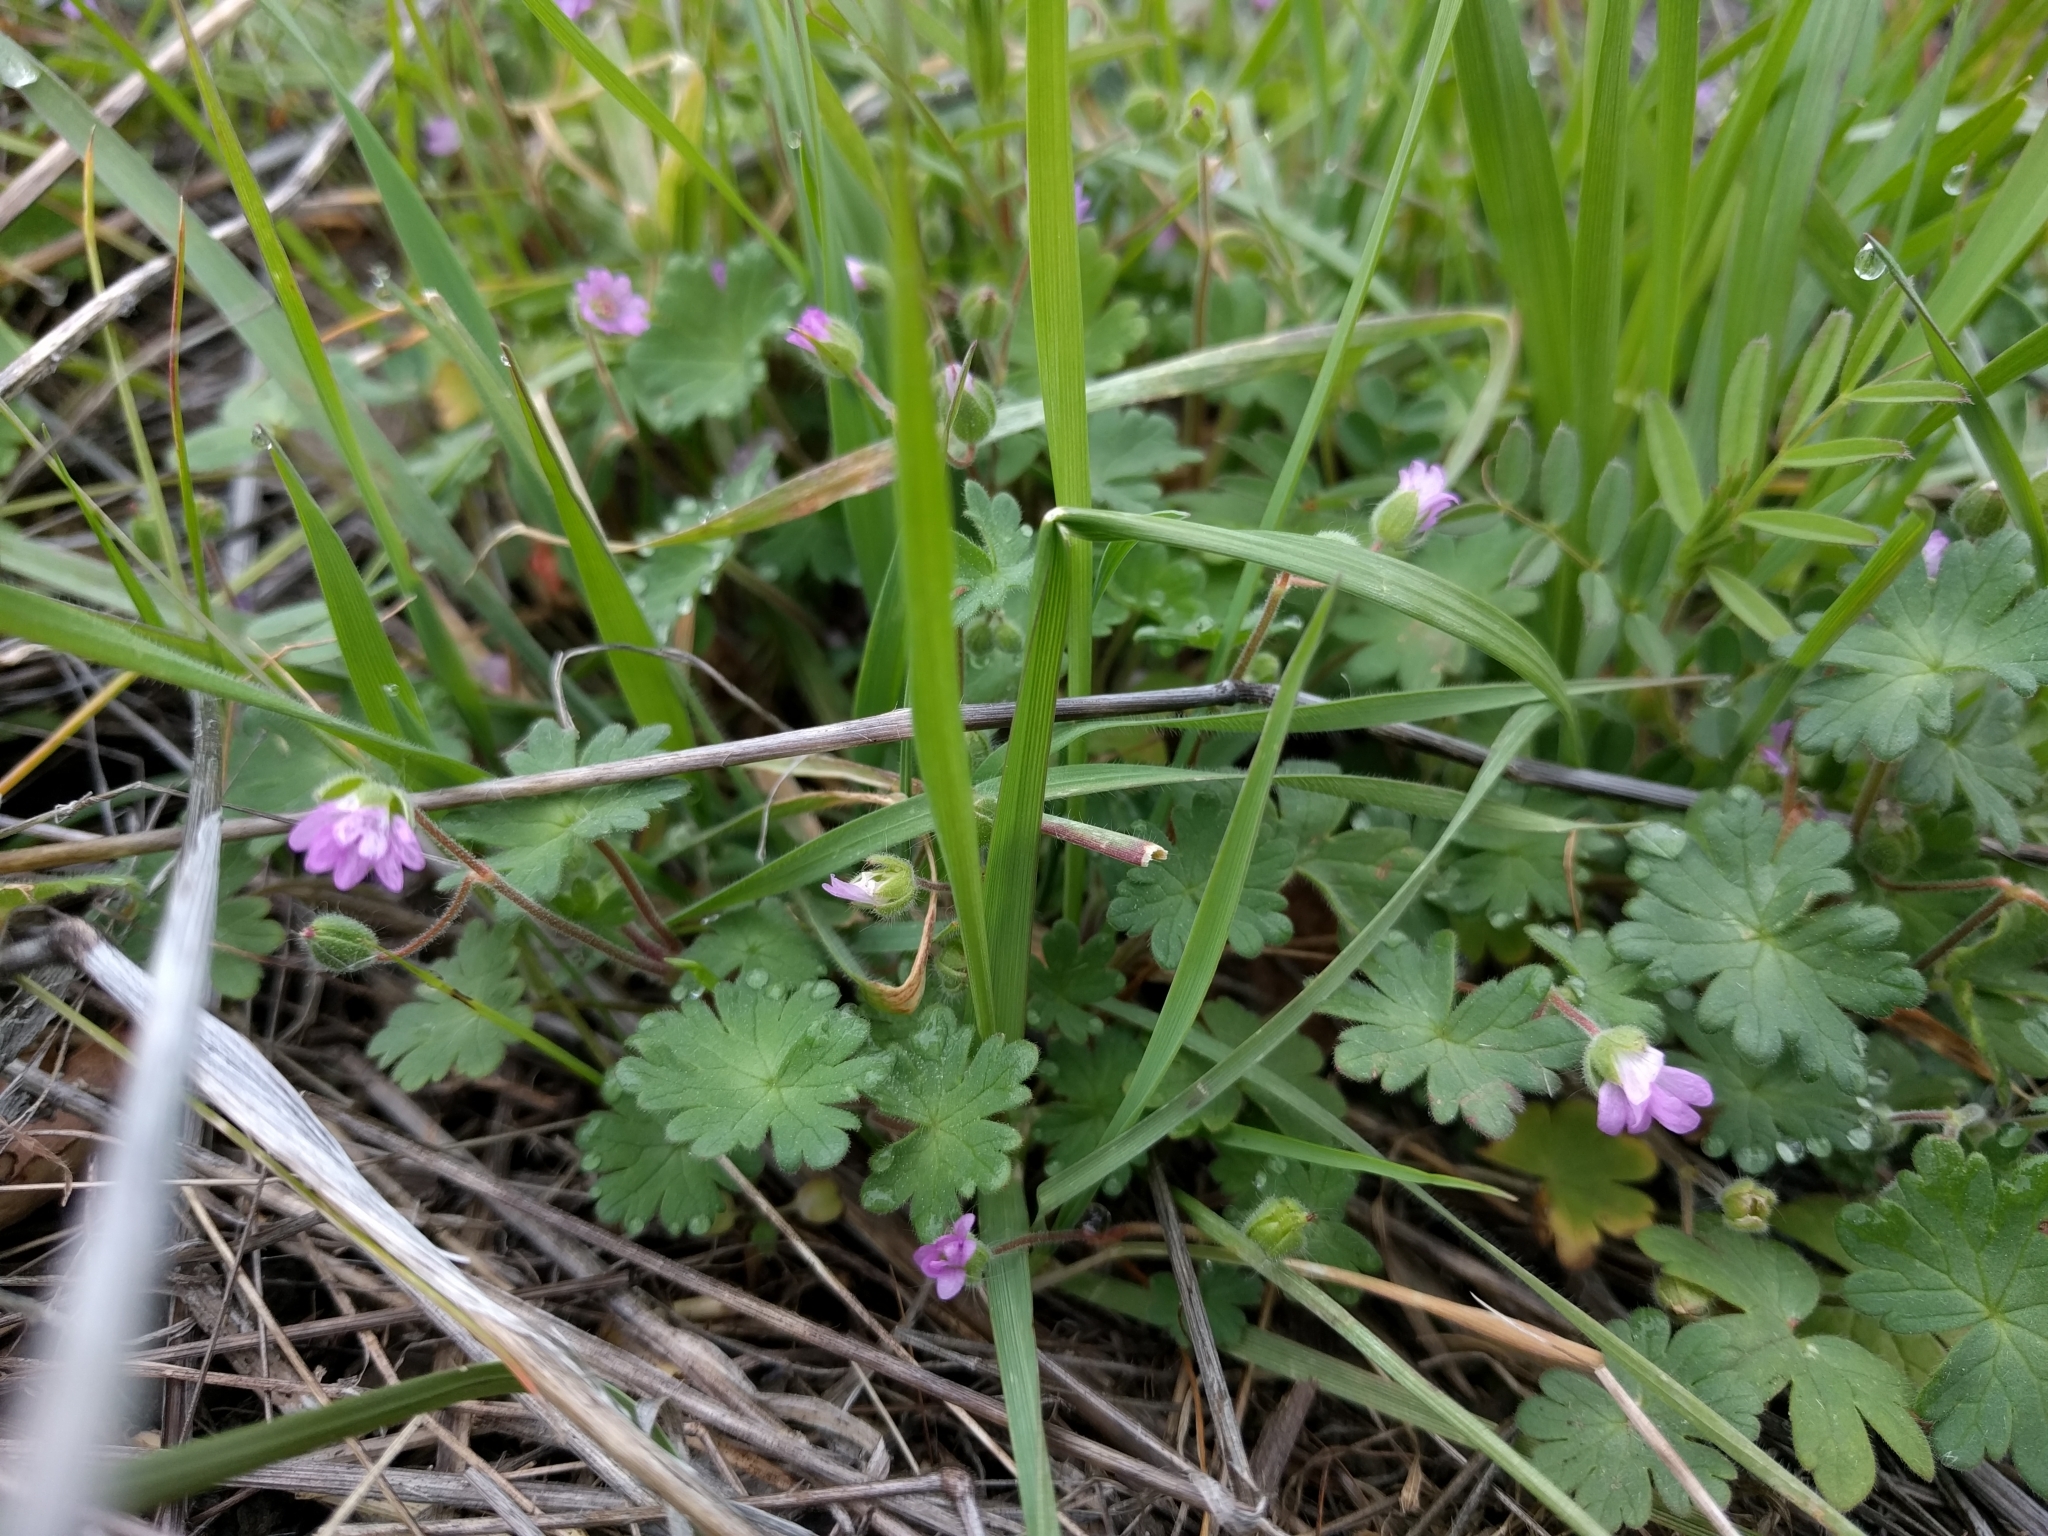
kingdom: Plantae
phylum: Tracheophyta
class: Magnoliopsida
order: Geraniales
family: Geraniaceae
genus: Geranium
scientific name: Geranium molle
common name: Dove's-foot crane's-bill
